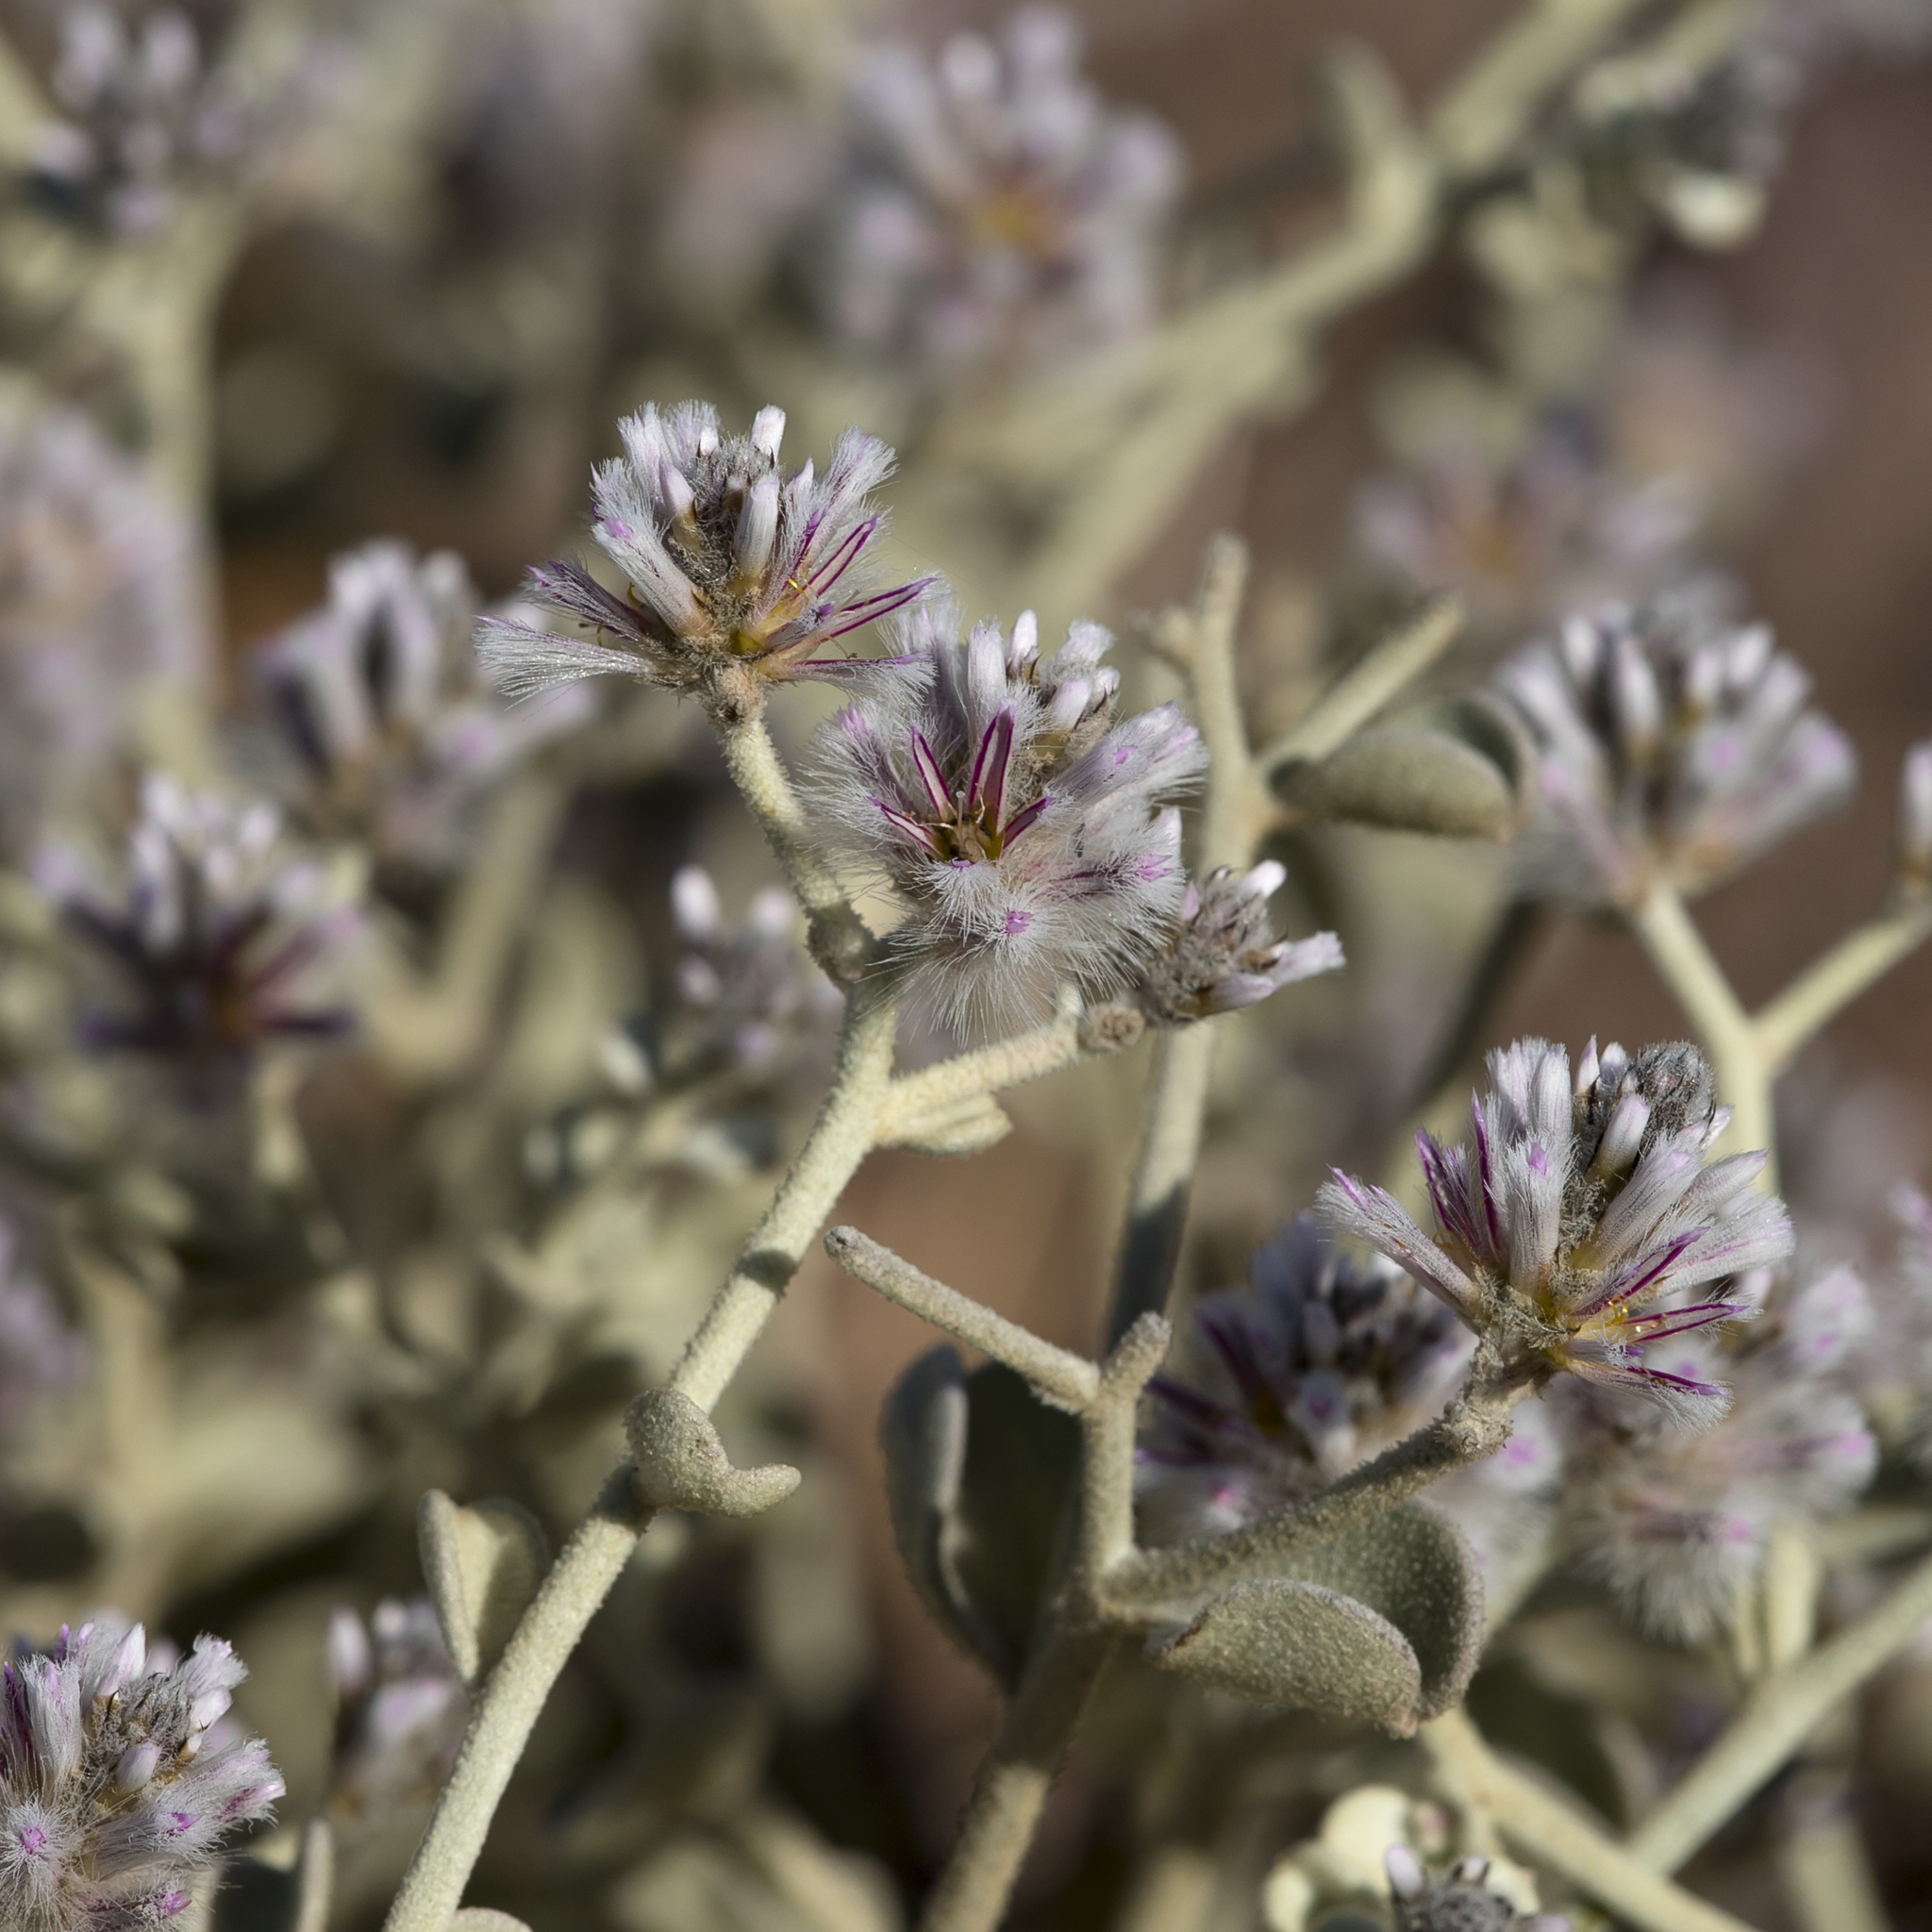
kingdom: Plantae
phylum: Tracheophyta
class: Magnoliopsida
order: Caryophyllales
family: Amaranthaceae
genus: Ptilotus
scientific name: Ptilotus obovatus
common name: Cottonbush
